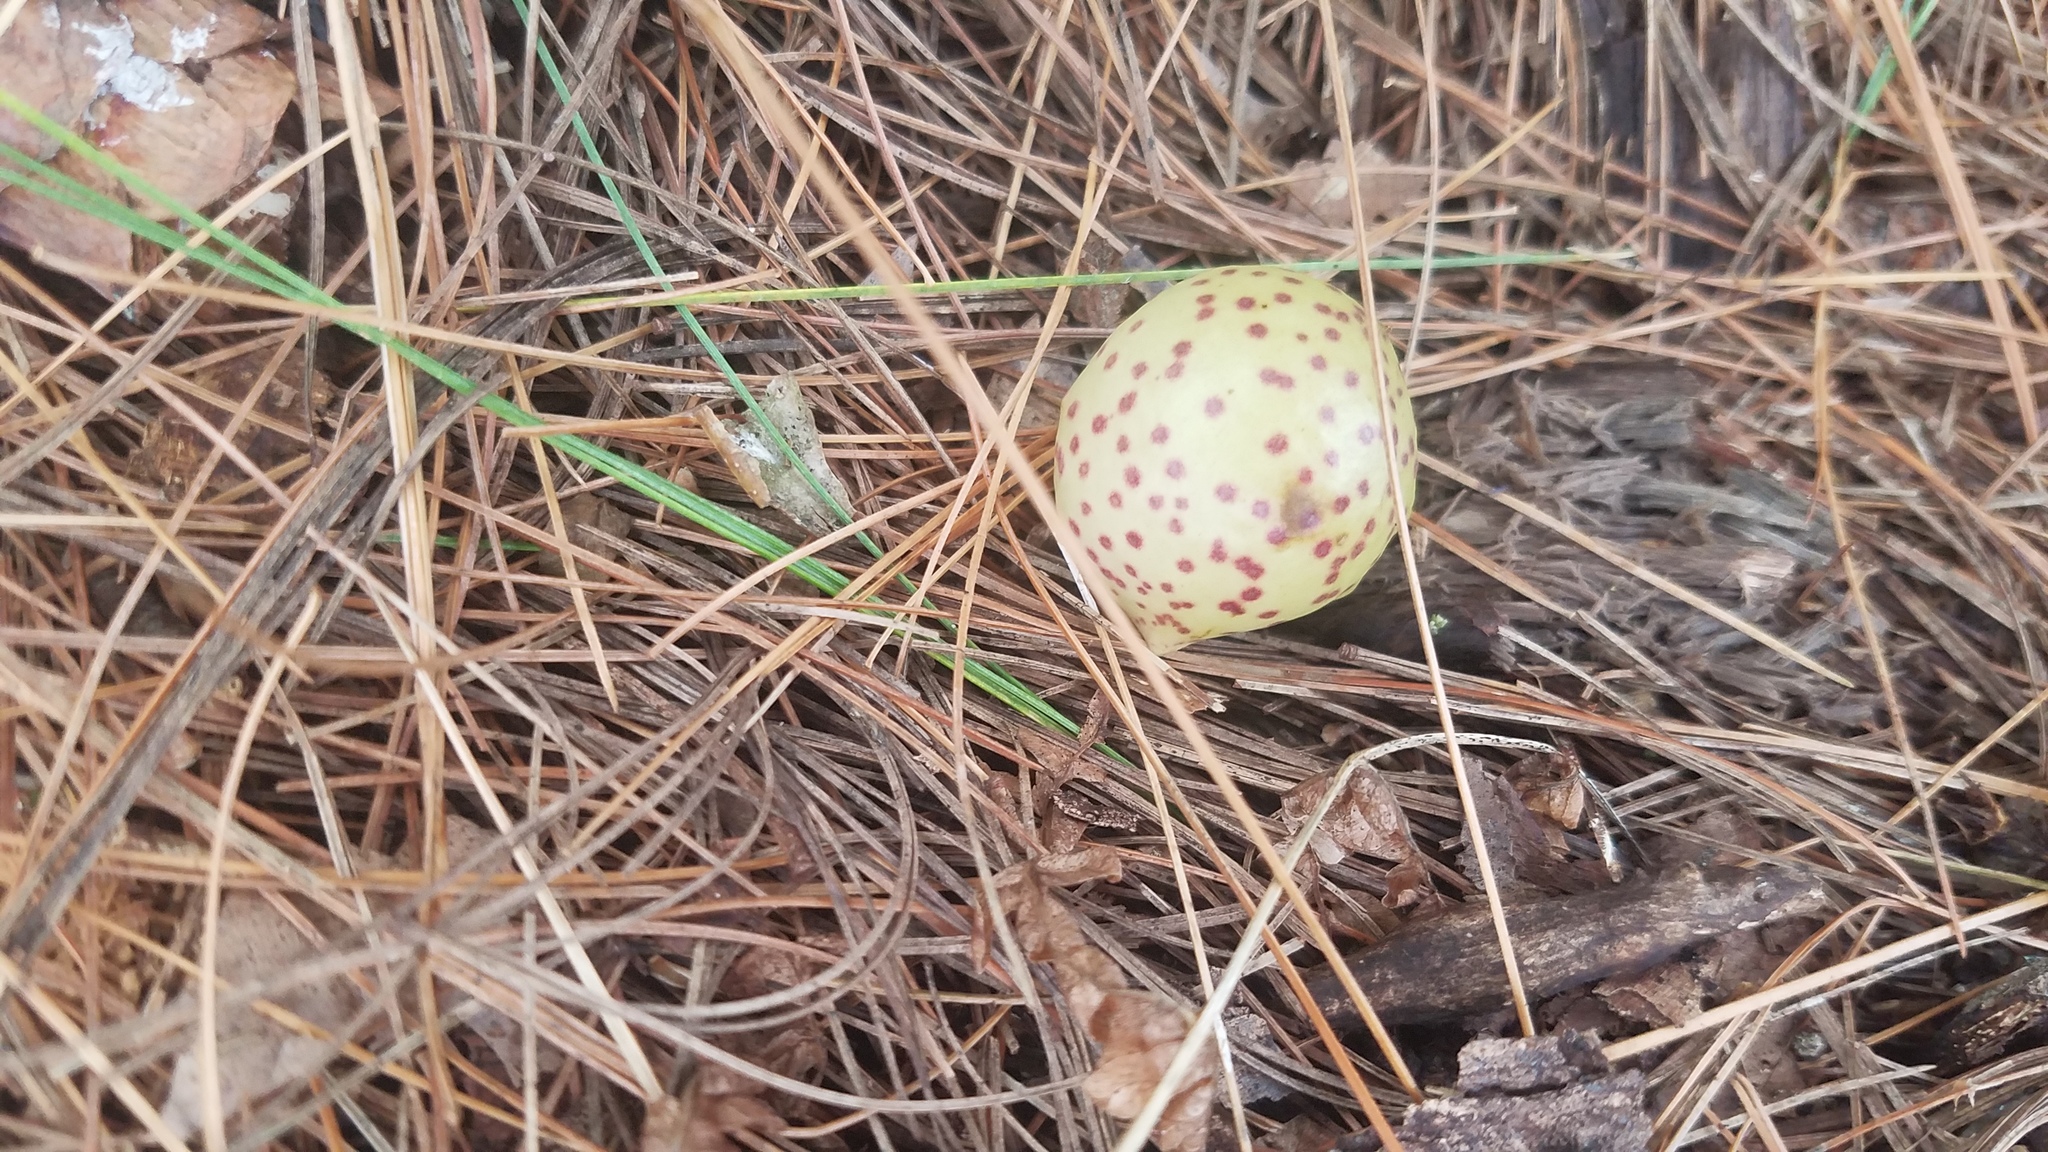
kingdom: Animalia
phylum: Arthropoda
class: Insecta
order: Hymenoptera
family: Cynipidae
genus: Amphibolips
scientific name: Amphibolips
